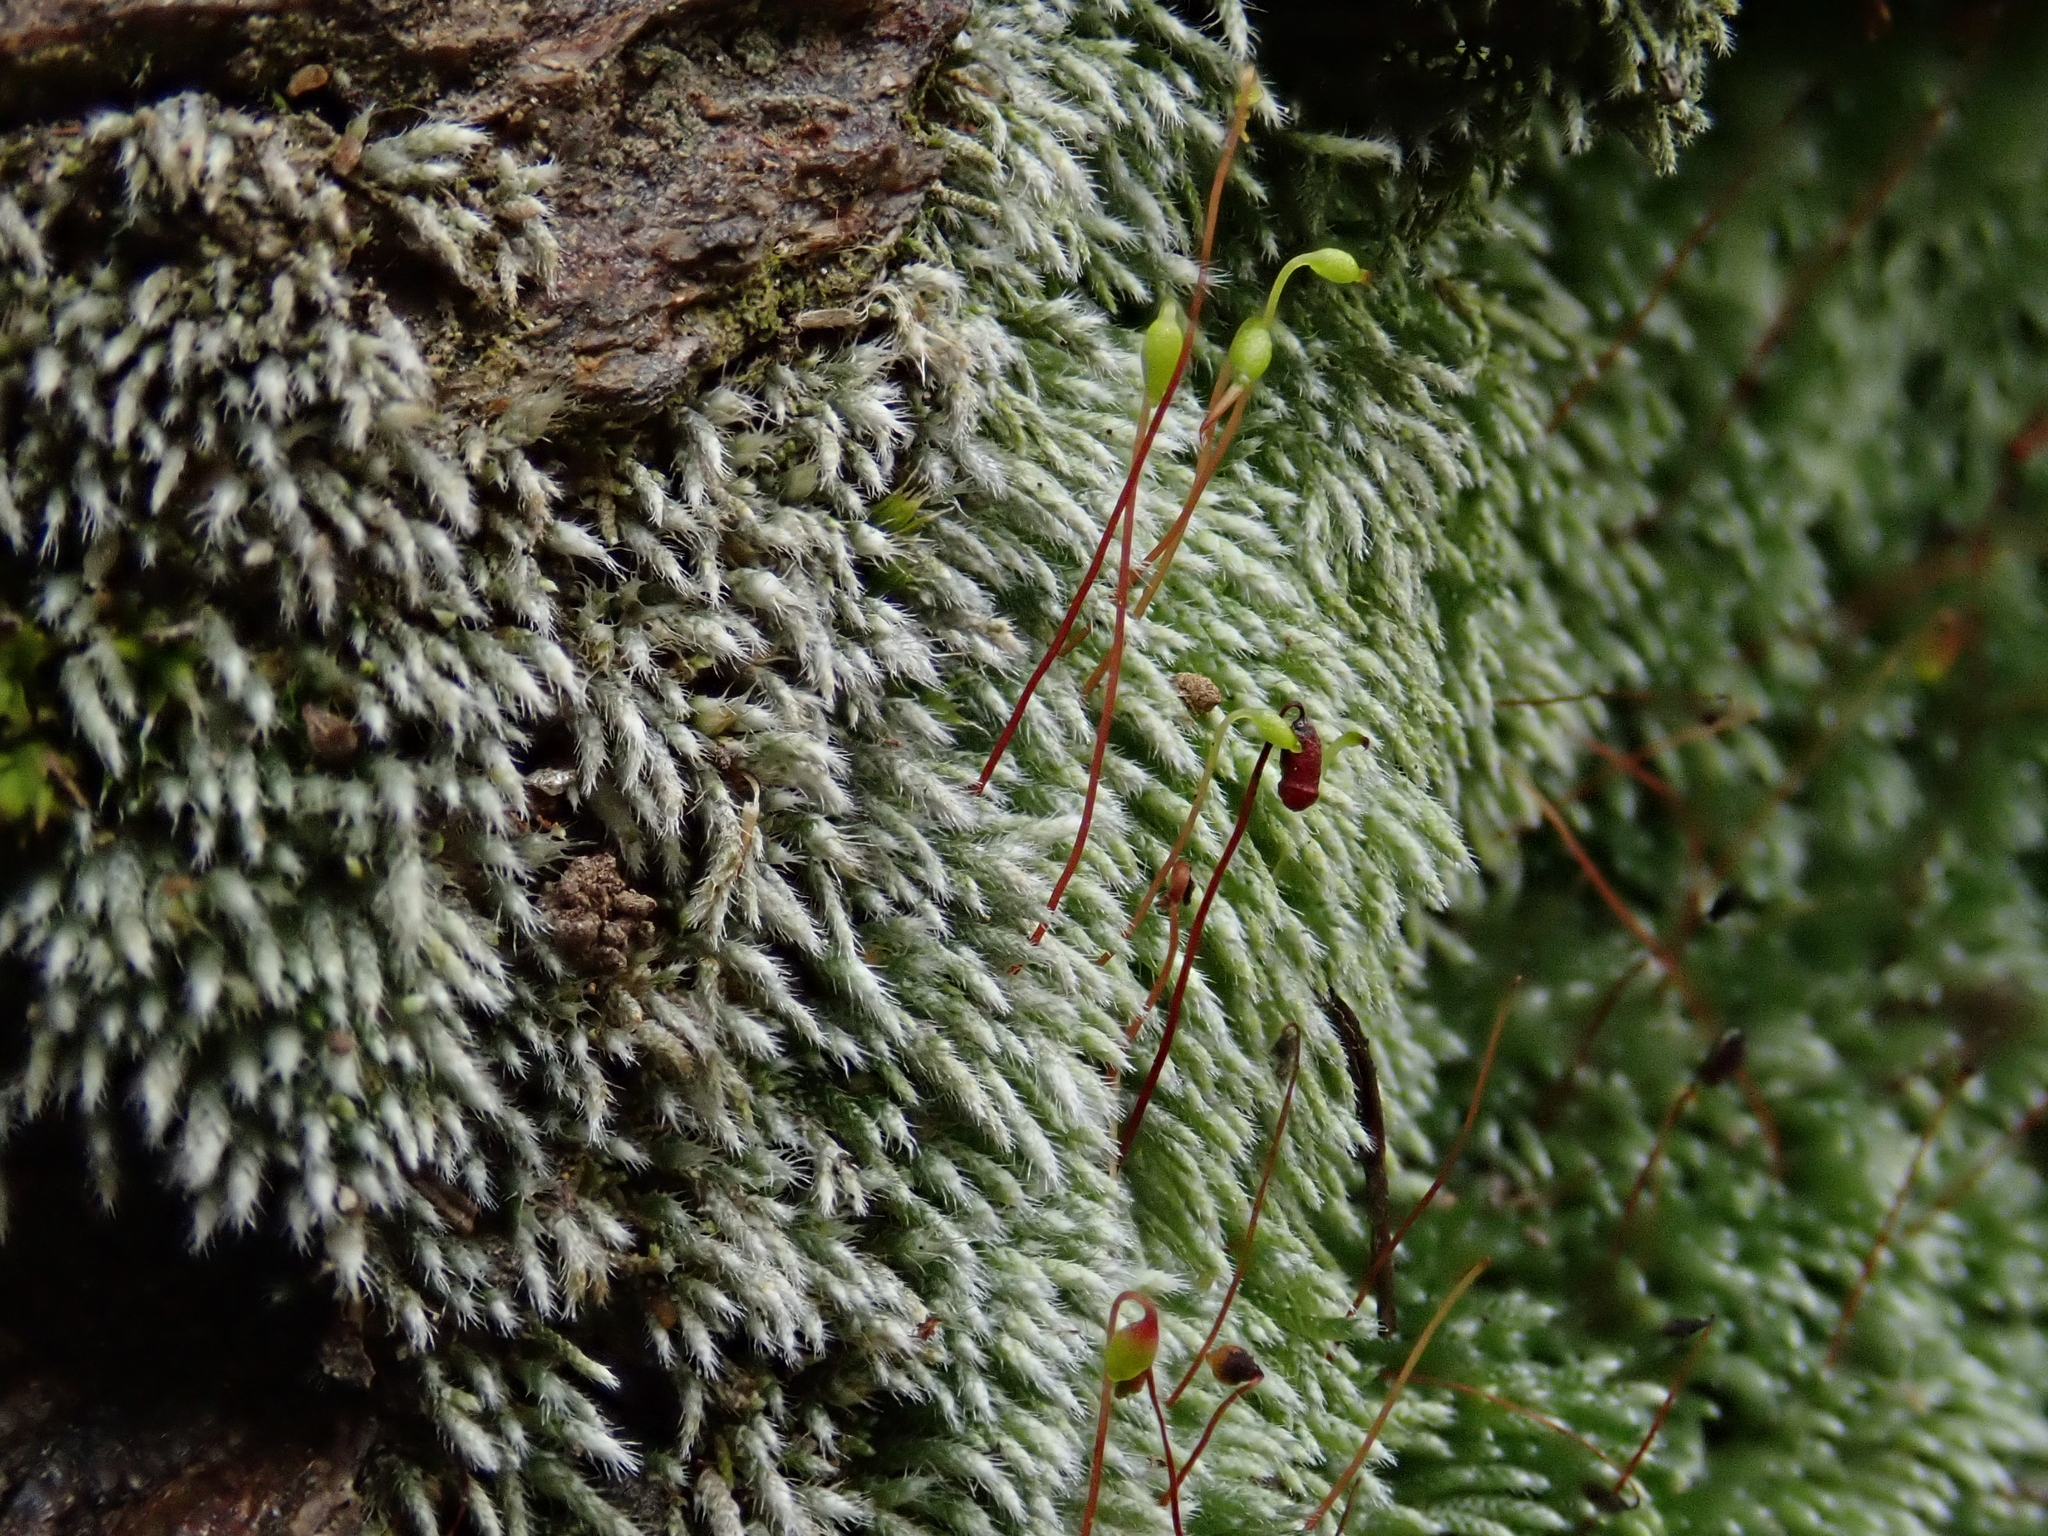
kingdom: Plantae
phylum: Bryophyta
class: Bryopsida
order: Bryales
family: Bryaceae
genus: Bryum
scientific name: Bryum argenteum
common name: Silver-moss
